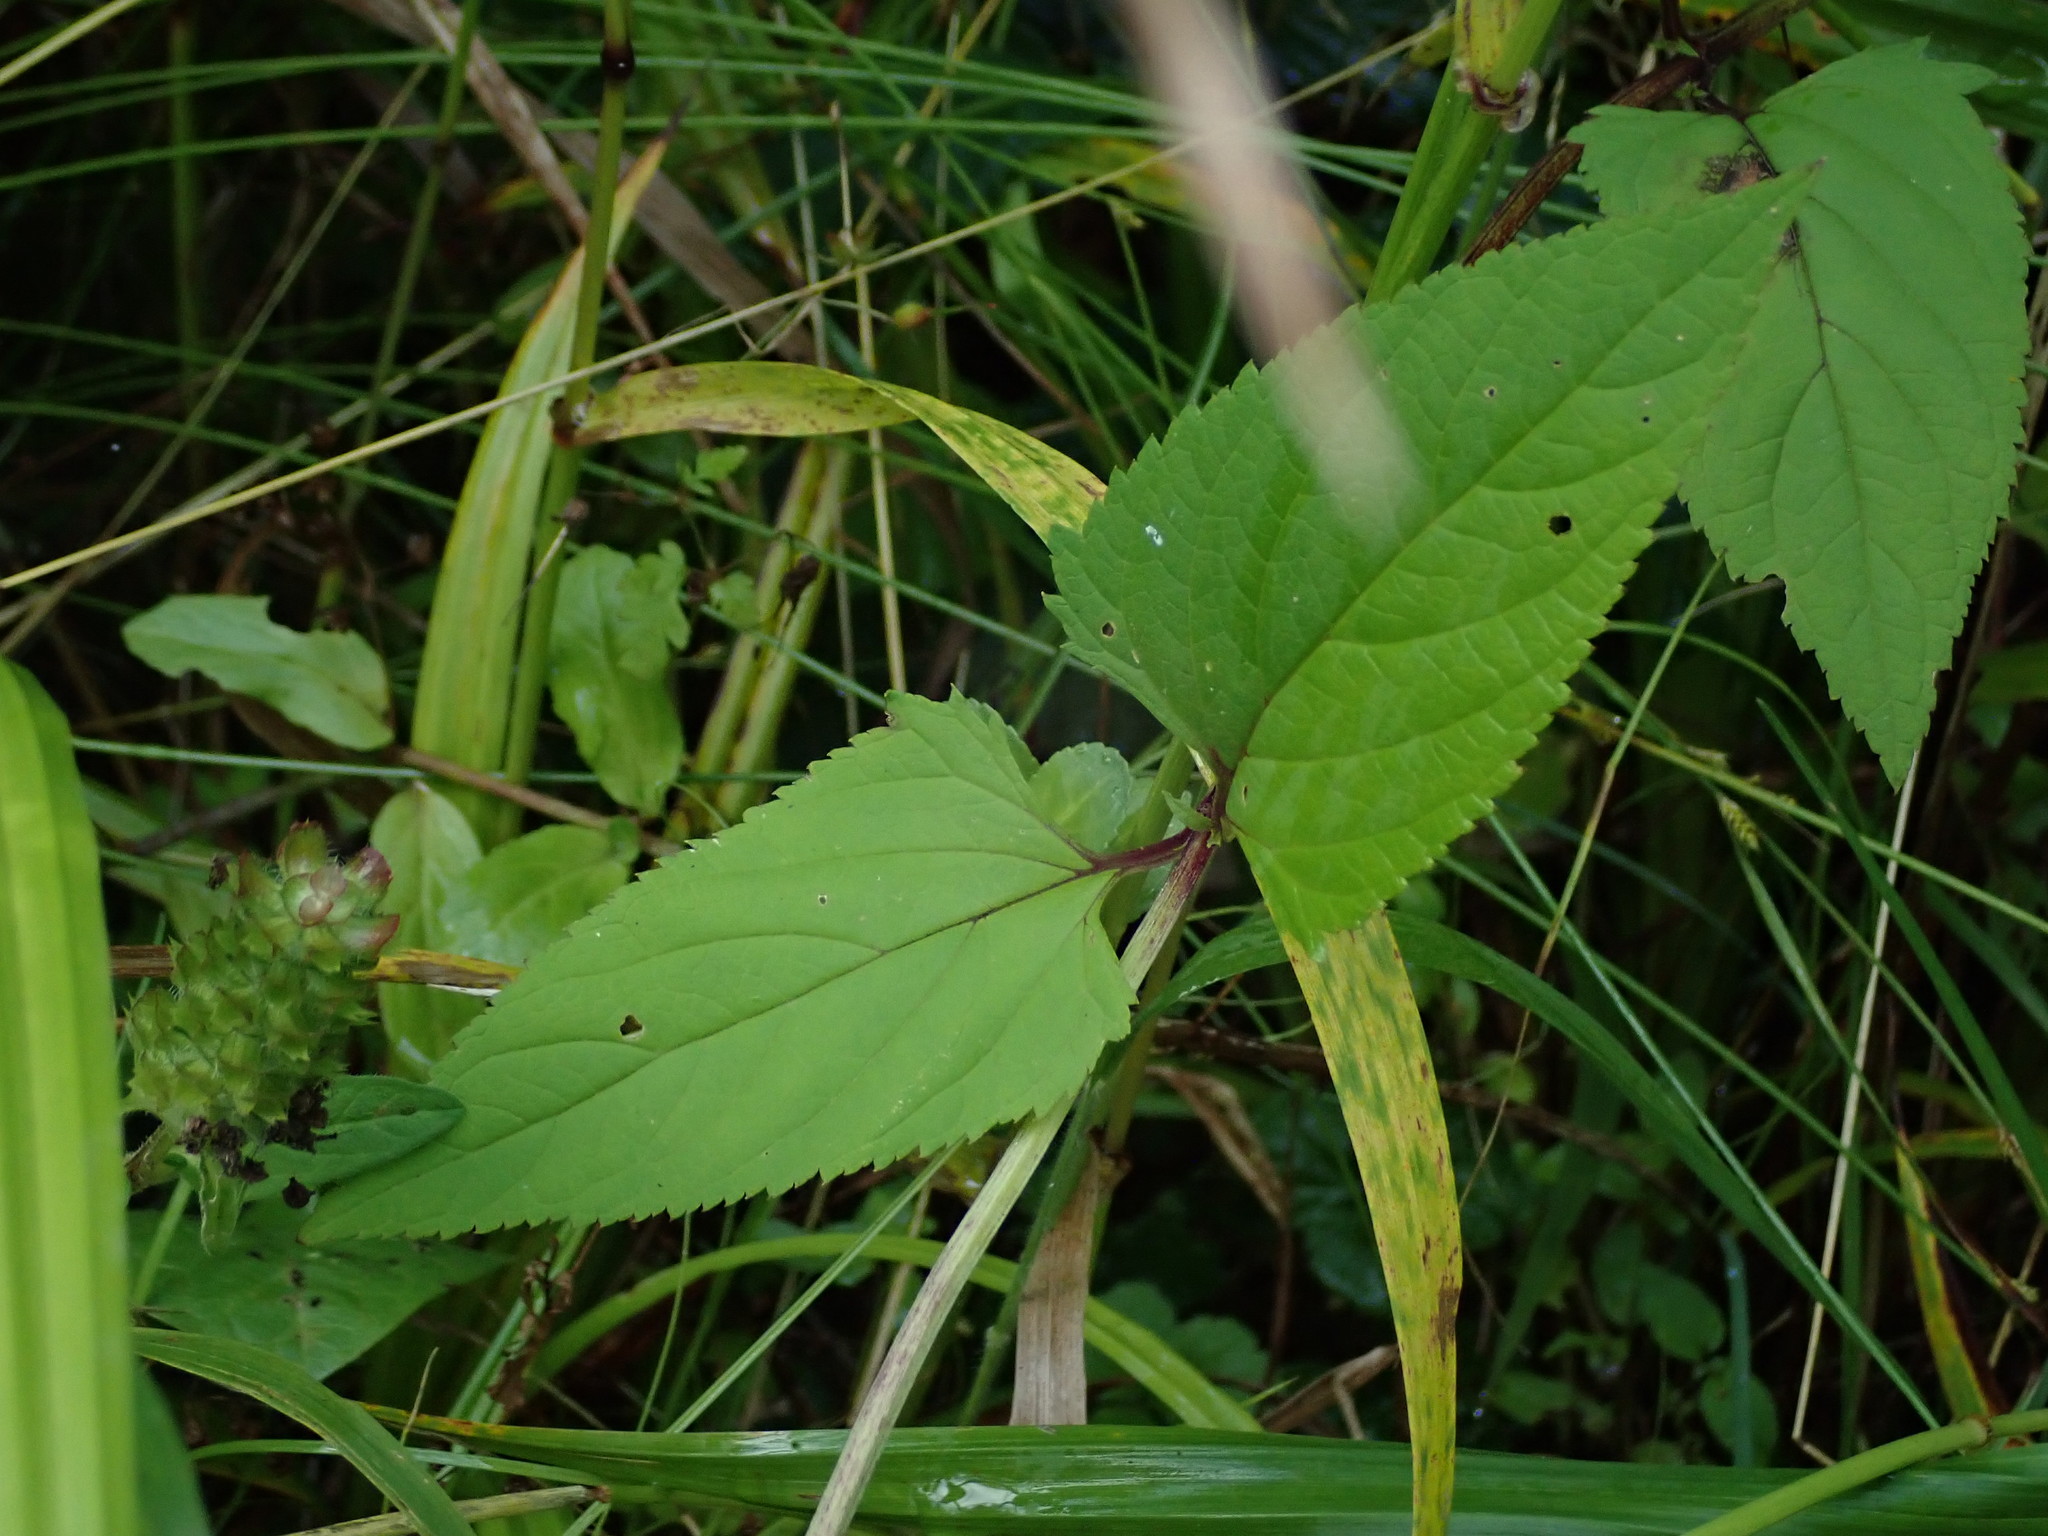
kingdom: Plantae
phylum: Tracheophyta
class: Magnoliopsida
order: Lamiales
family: Scrophulariaceae
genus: Scrophularia
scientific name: Scrophularia nodosa
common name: Common figwort
